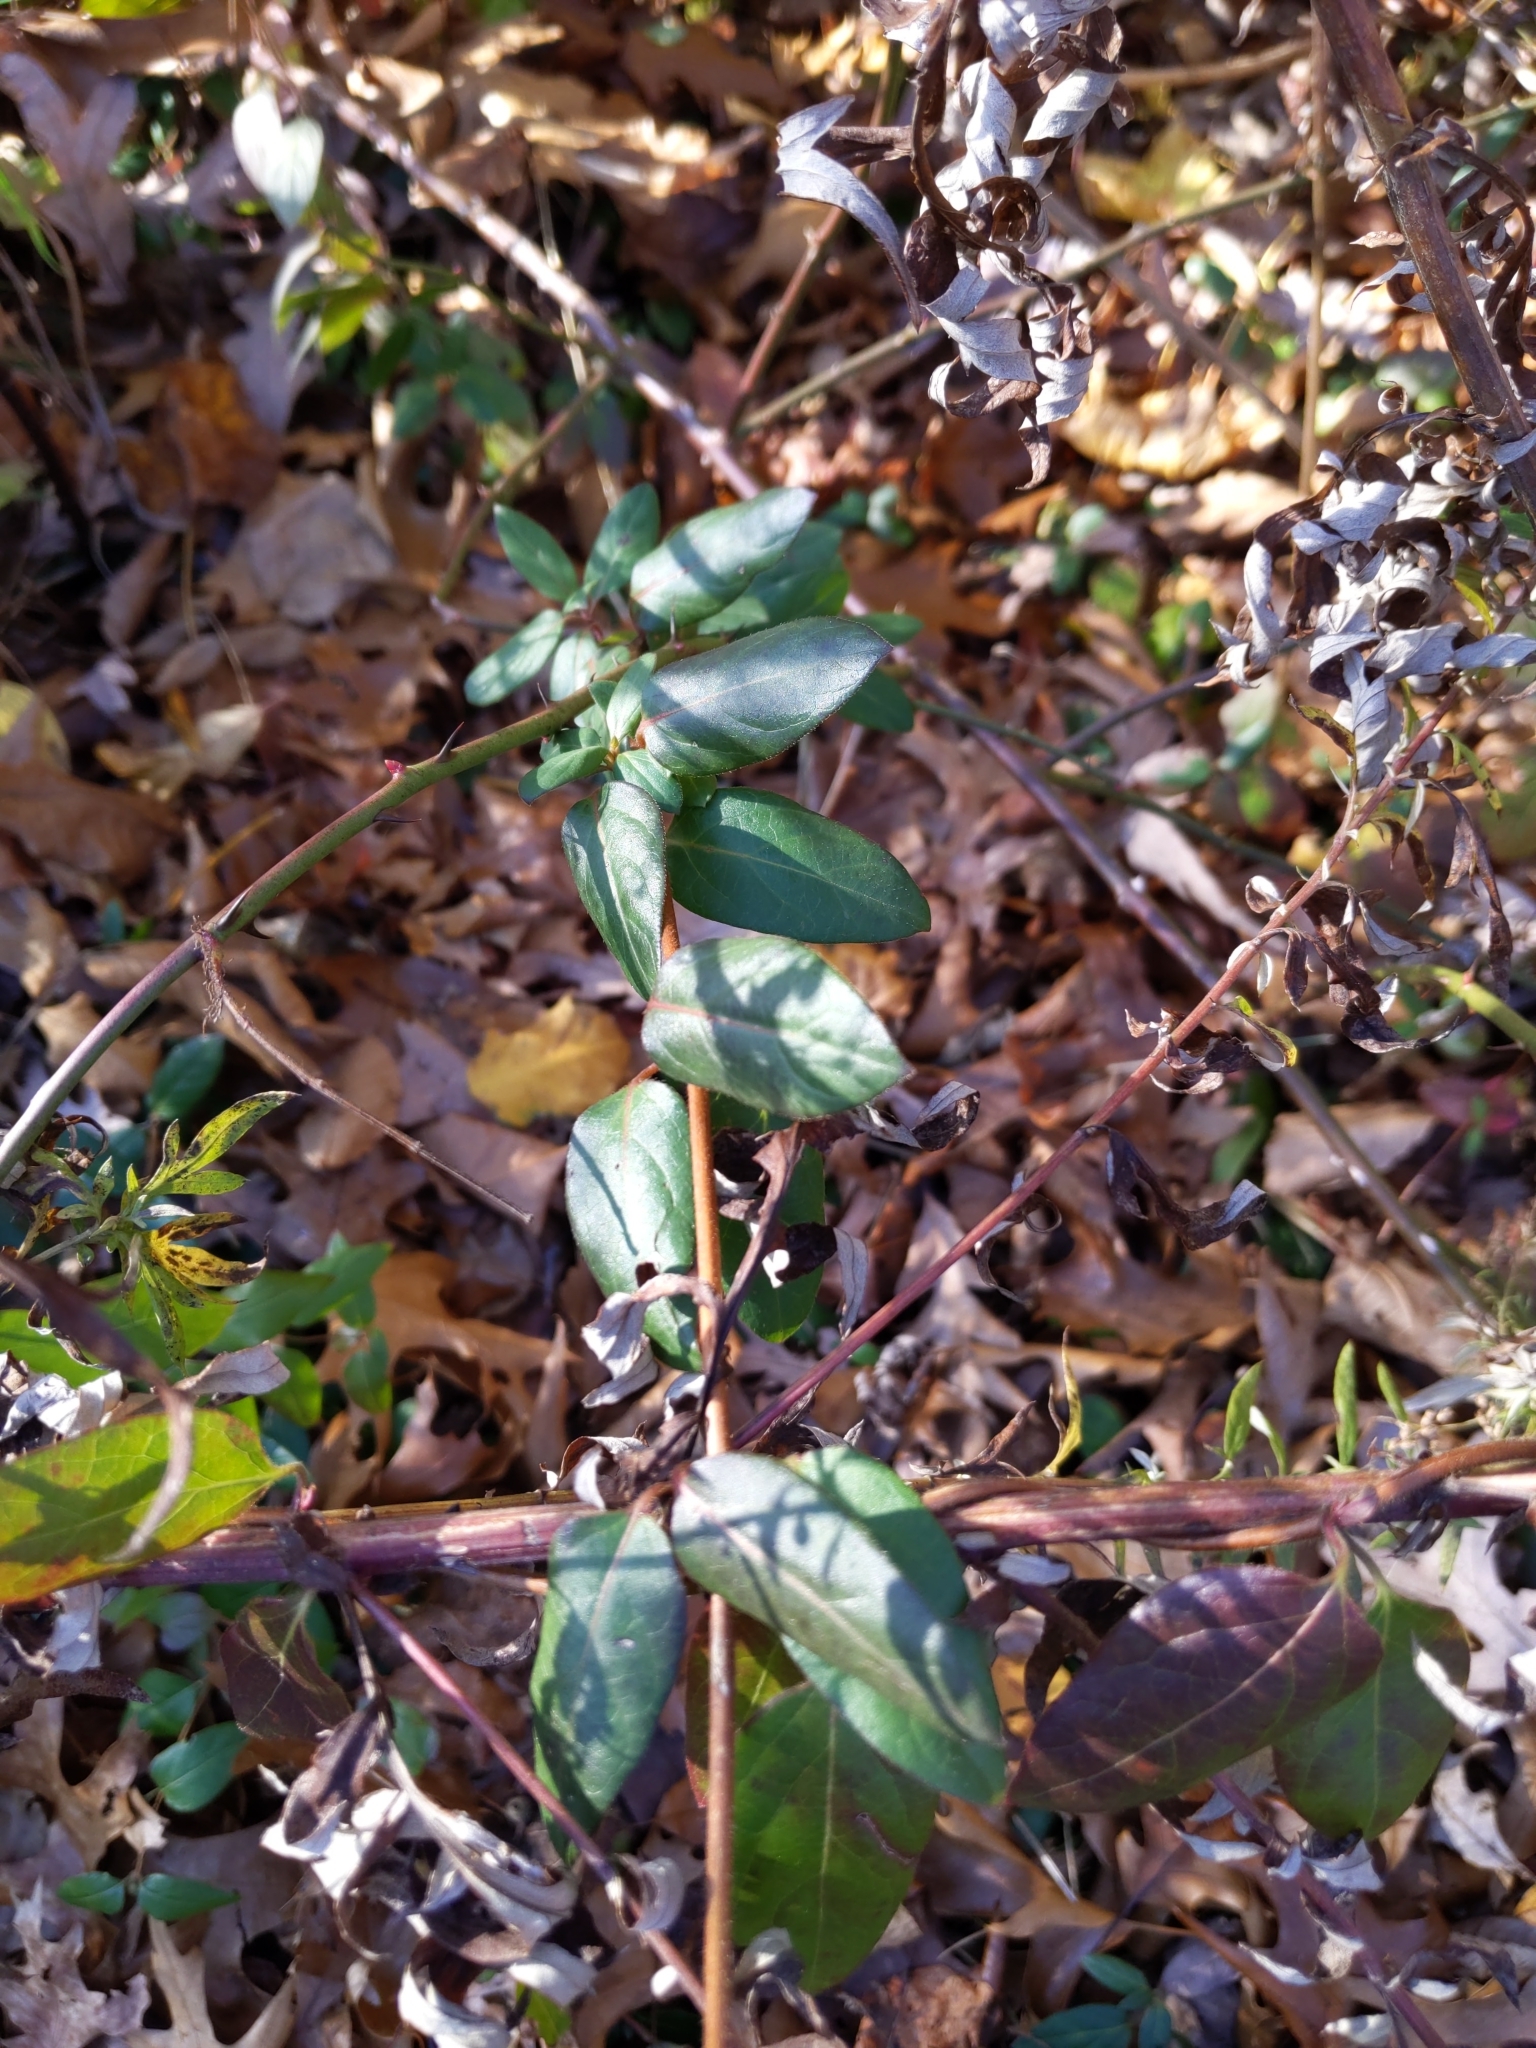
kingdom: Plantae
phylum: Tracheophyta
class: Magnoliopsida
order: Dipsacales
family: Caprifoliaceae
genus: Lonicera
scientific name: Lonicera japonica
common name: Japanese honeysuckle
